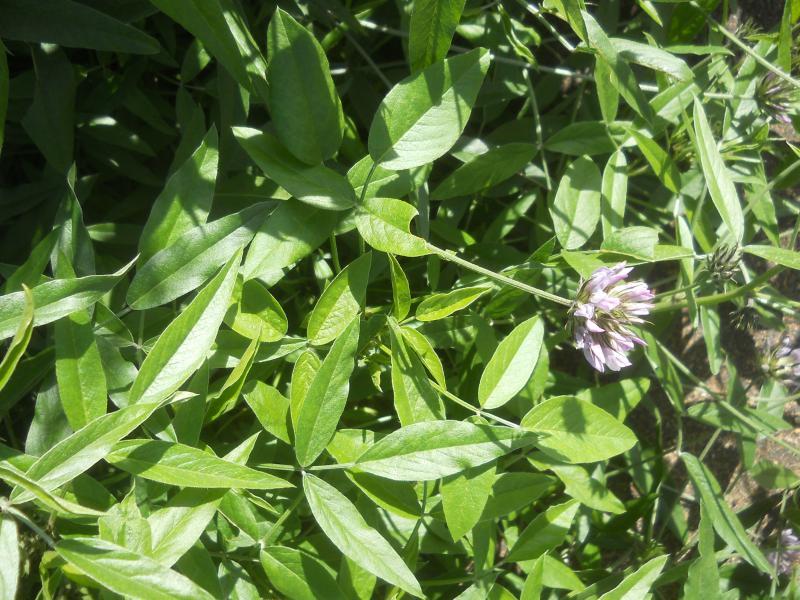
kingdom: Plantae
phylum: Tracheophyta
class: Magnoliopsida
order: Fabales
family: Fabaceae
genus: Bituminaria
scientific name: Bituminaria bituminosa
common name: Arabian pea
